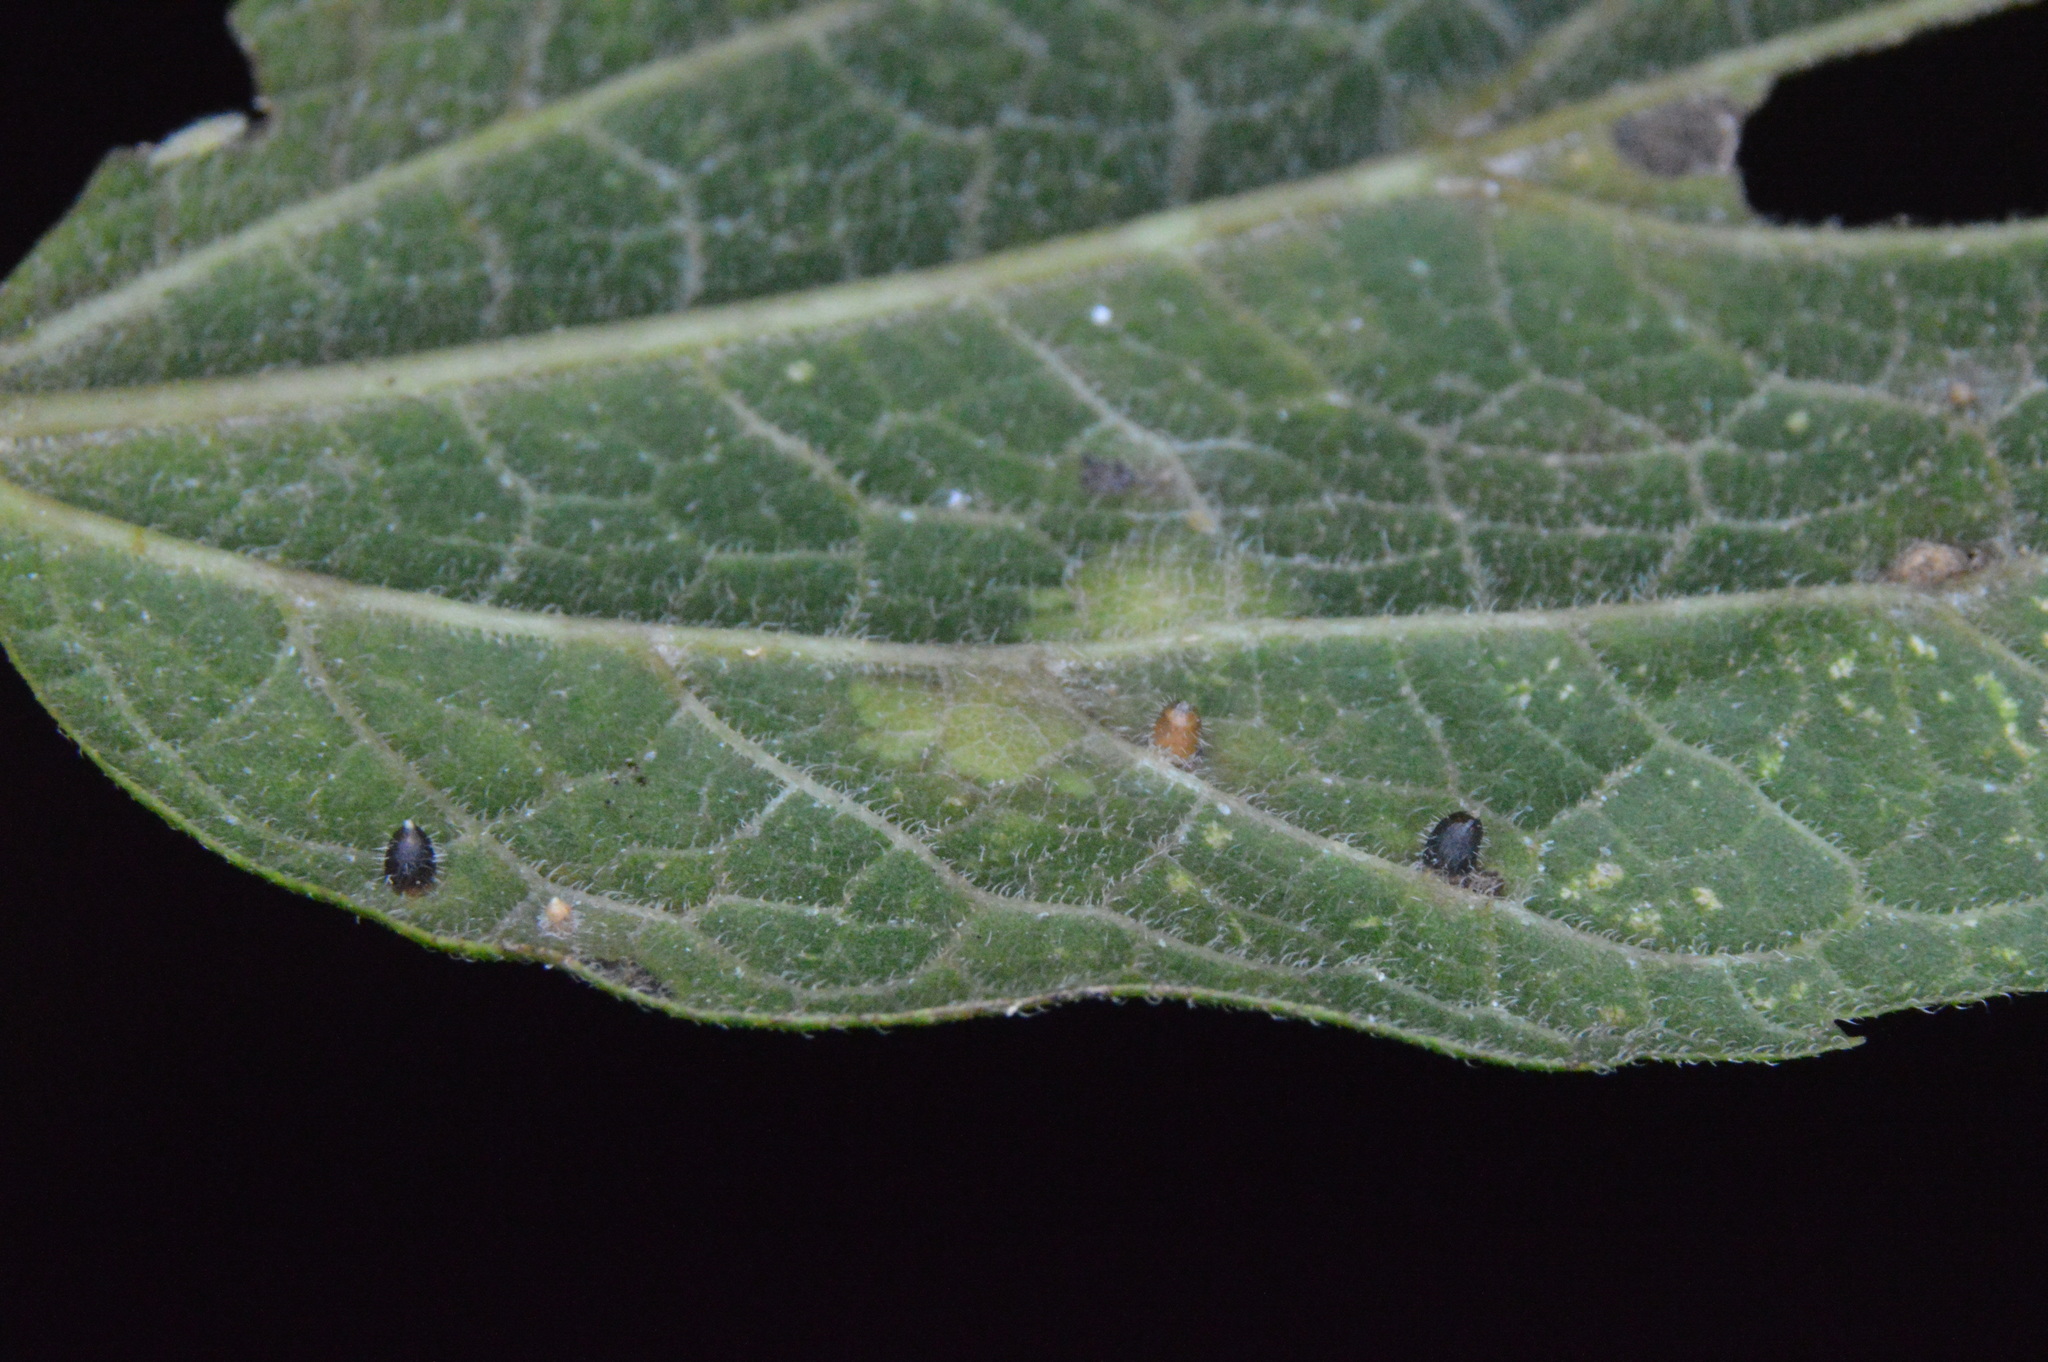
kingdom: Animalia
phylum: Arthropoda
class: Insecta
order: Diptera
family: Cecidomyiidae
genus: Celticecis
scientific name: Celticecis cupiformis
